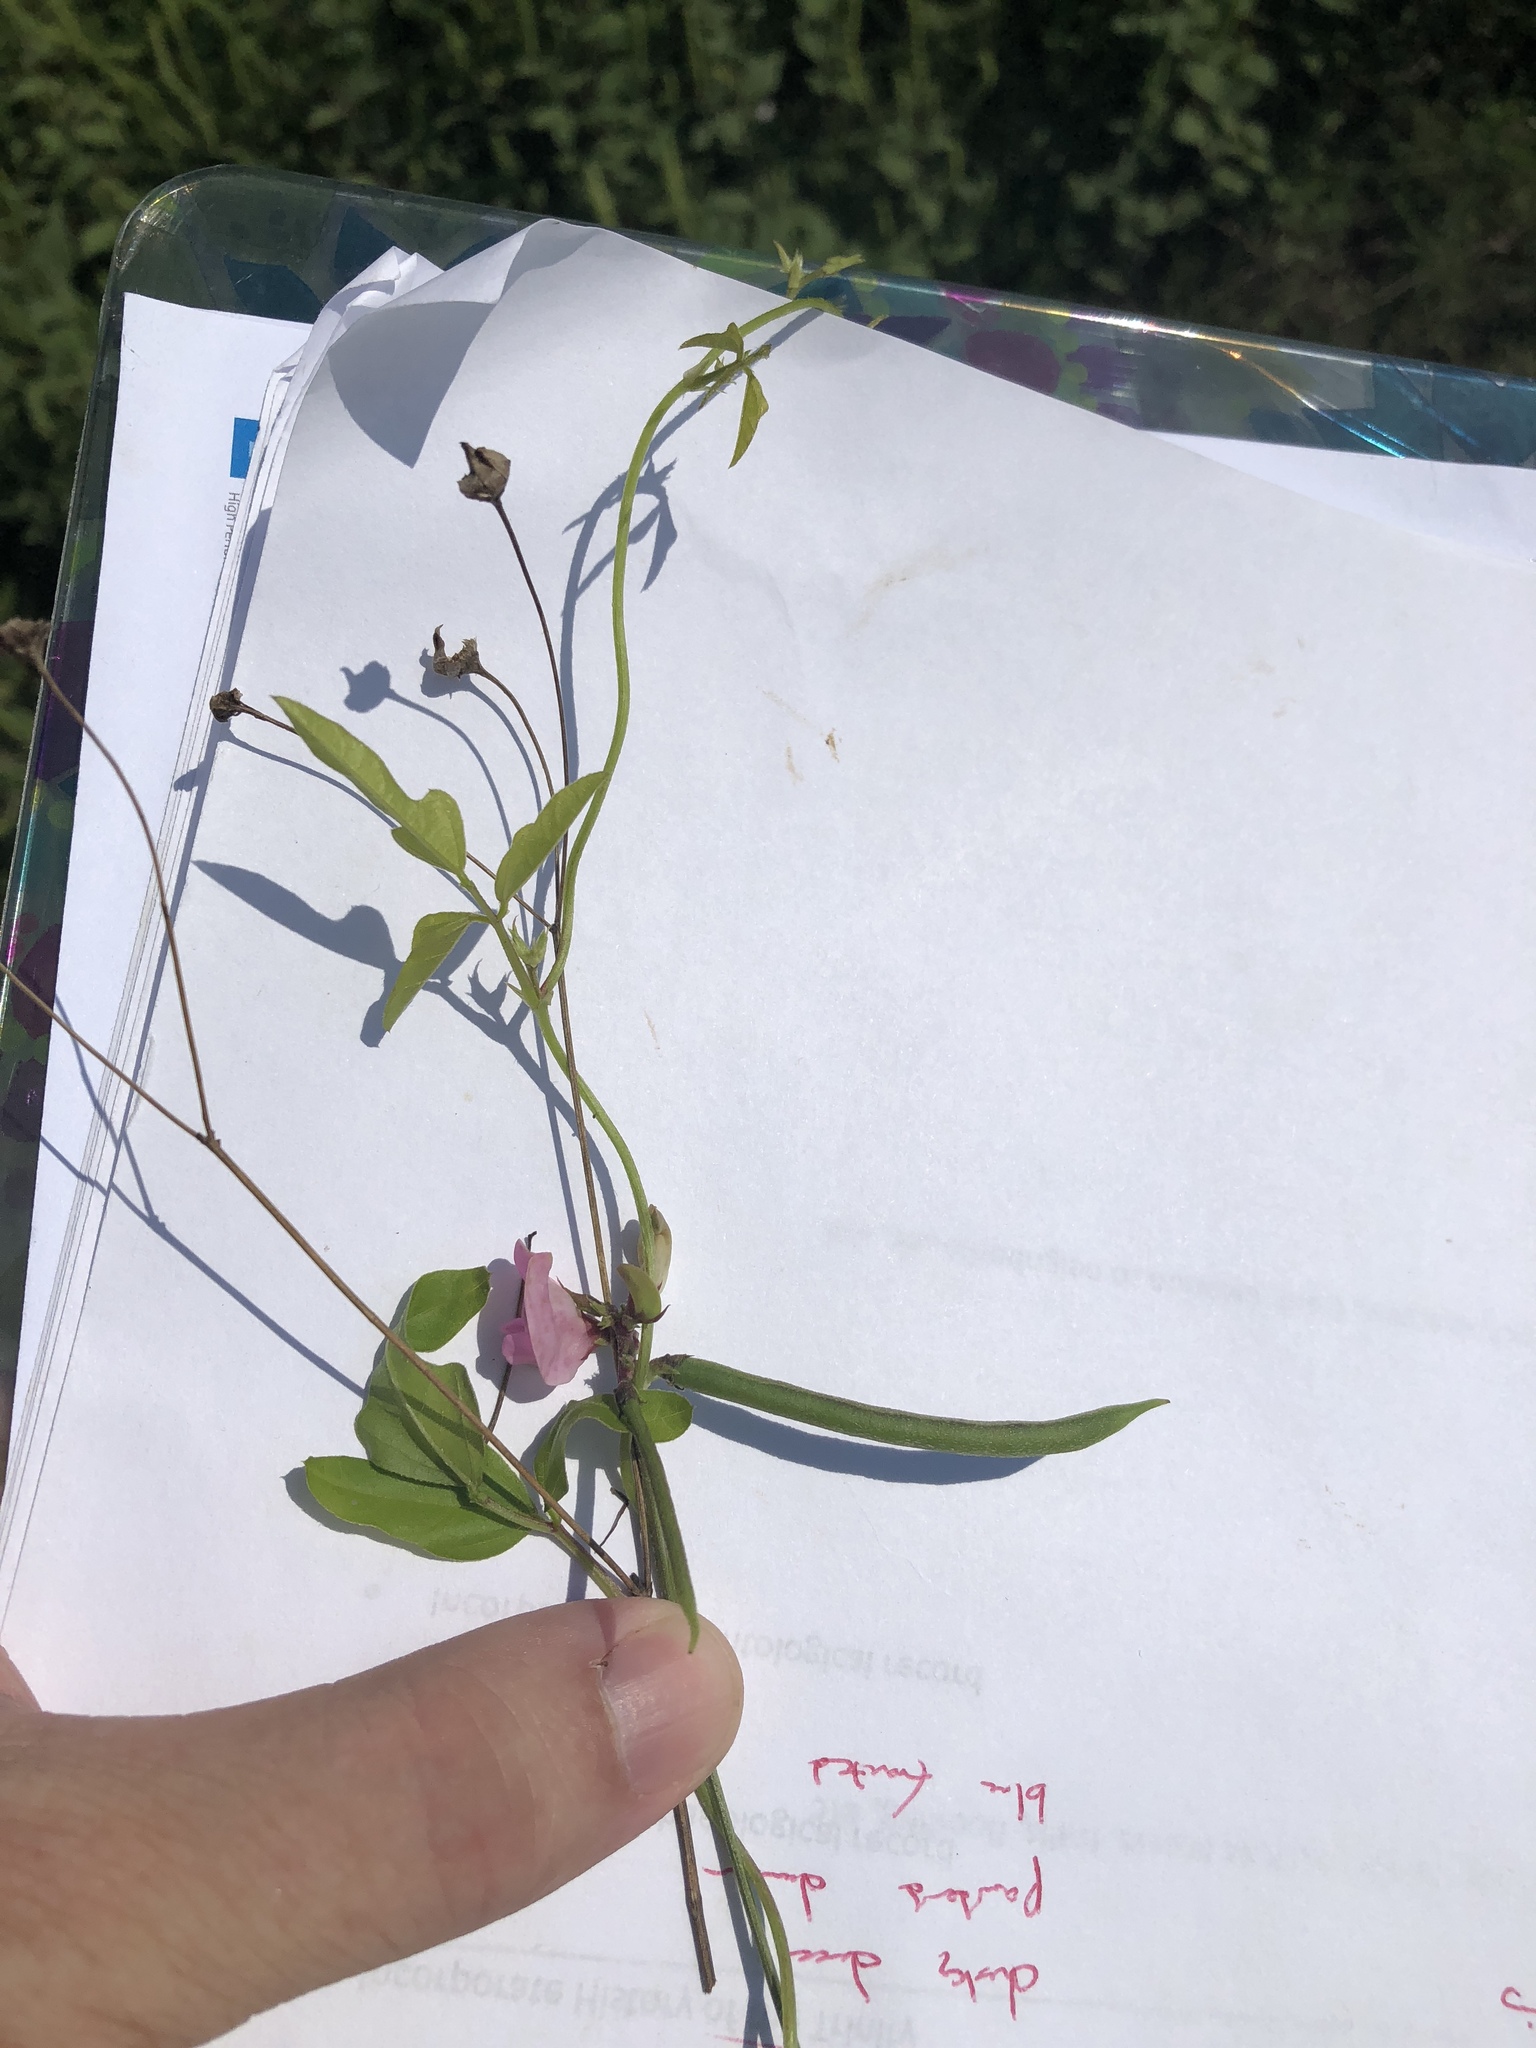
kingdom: Plantae
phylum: Tracheophyta
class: Magnoliopsida
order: Fabales
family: Fabaceae
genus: Strophostyles
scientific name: Strophostyles helvola
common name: Trailing wild bean
